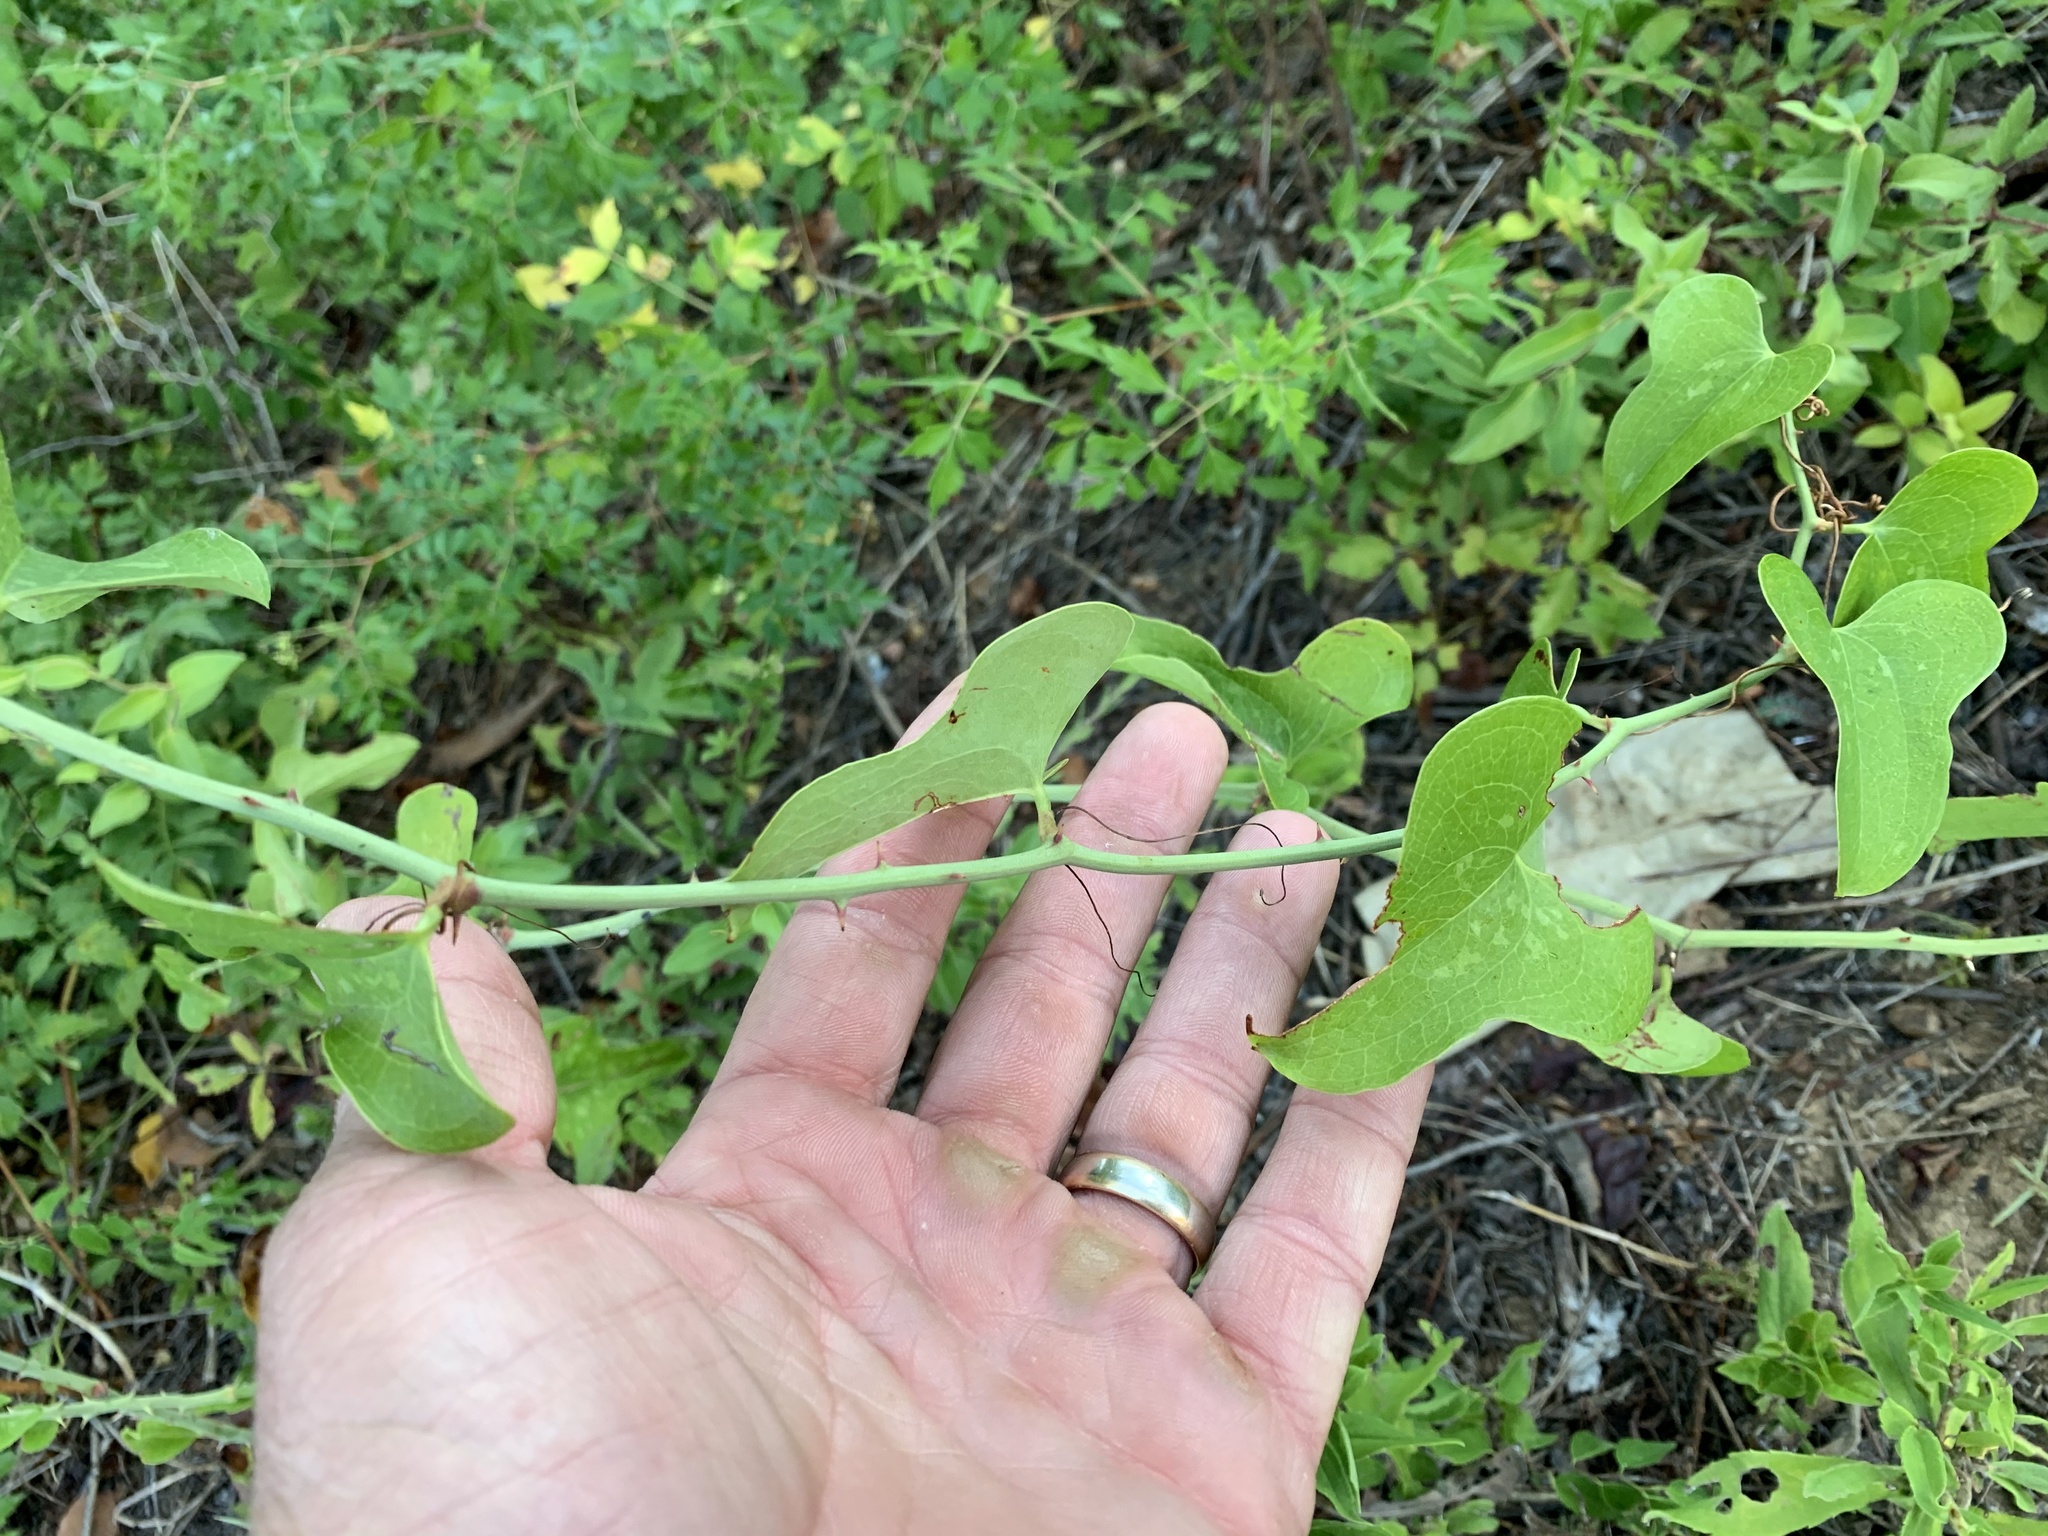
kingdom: Plantae
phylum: Tracheophyta
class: Liliopsida
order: Liliales
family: Smilacaceae
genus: Smilax
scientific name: Smilax bona-nox
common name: Catbrier
